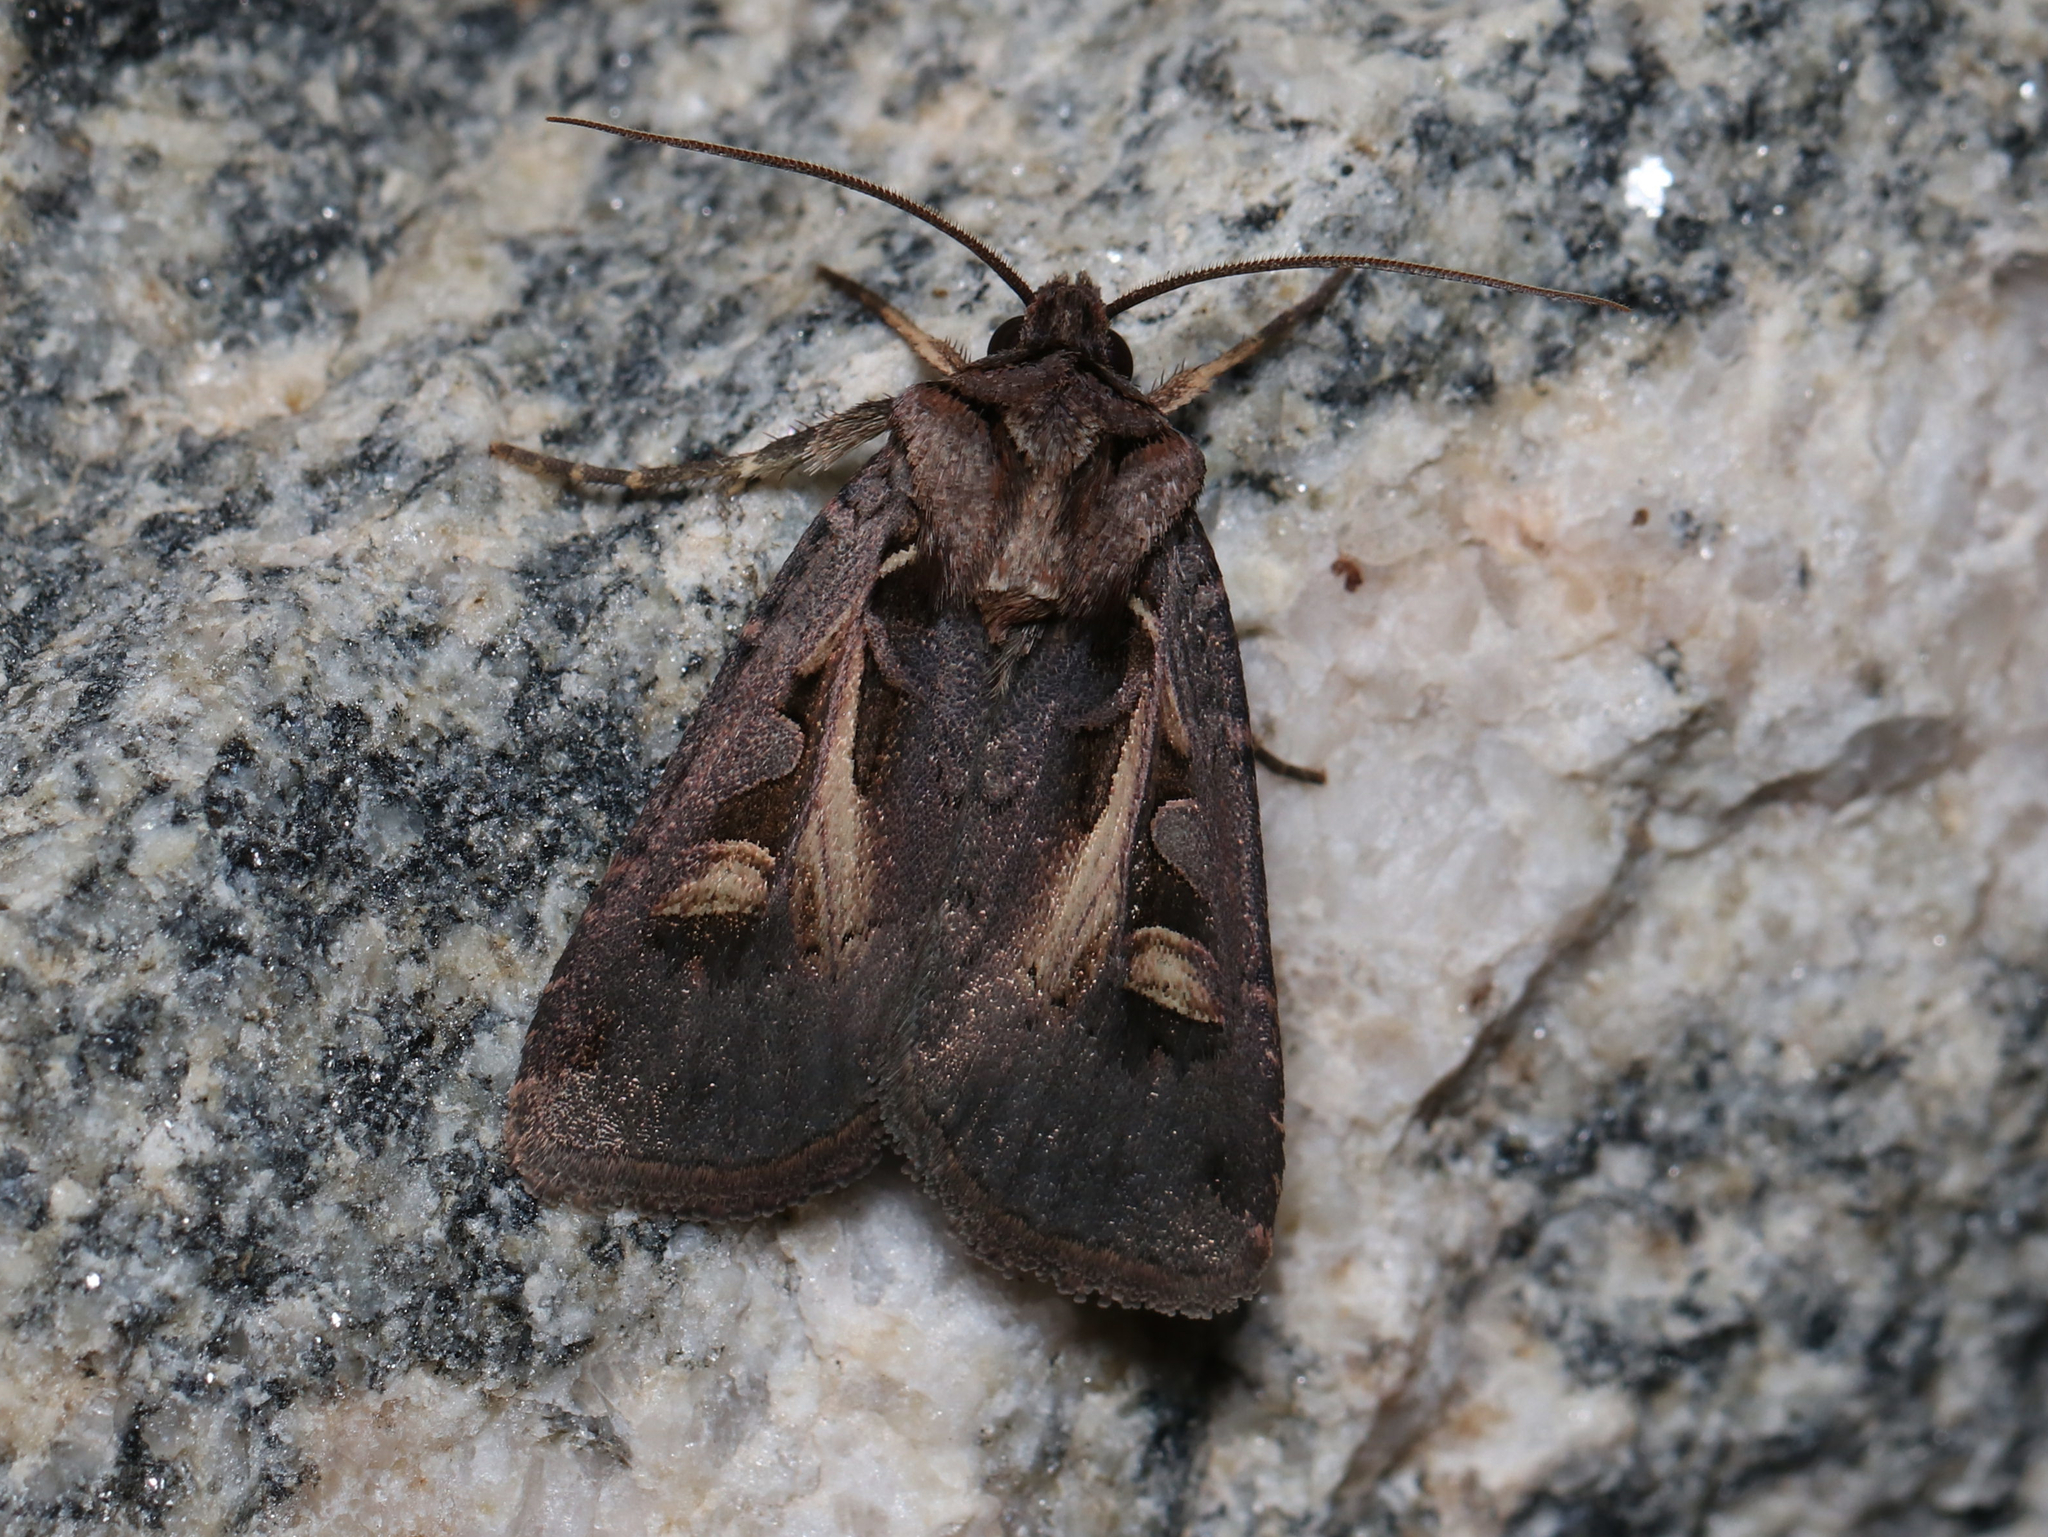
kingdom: Animalia
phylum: Arthropoda
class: Insecta
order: Lepidoptera
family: Noctuidae
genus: Feltia
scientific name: Feltia herilis
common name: Master's dart
